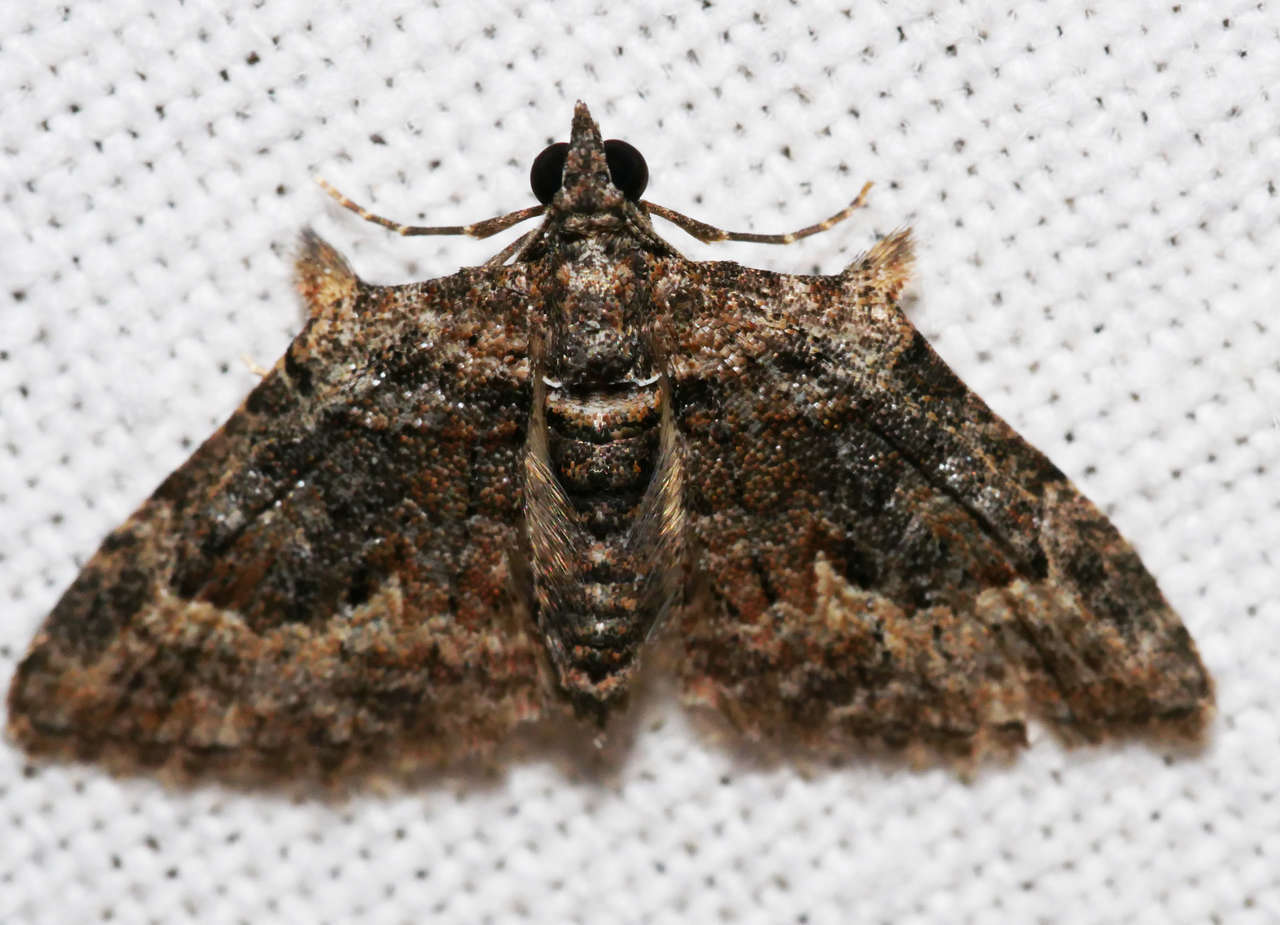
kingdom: Animalia
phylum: Arthropoda
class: Insecta
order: Lepidoptera
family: Geometridae
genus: Phrissogonus
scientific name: Phrissogonus laticostata
